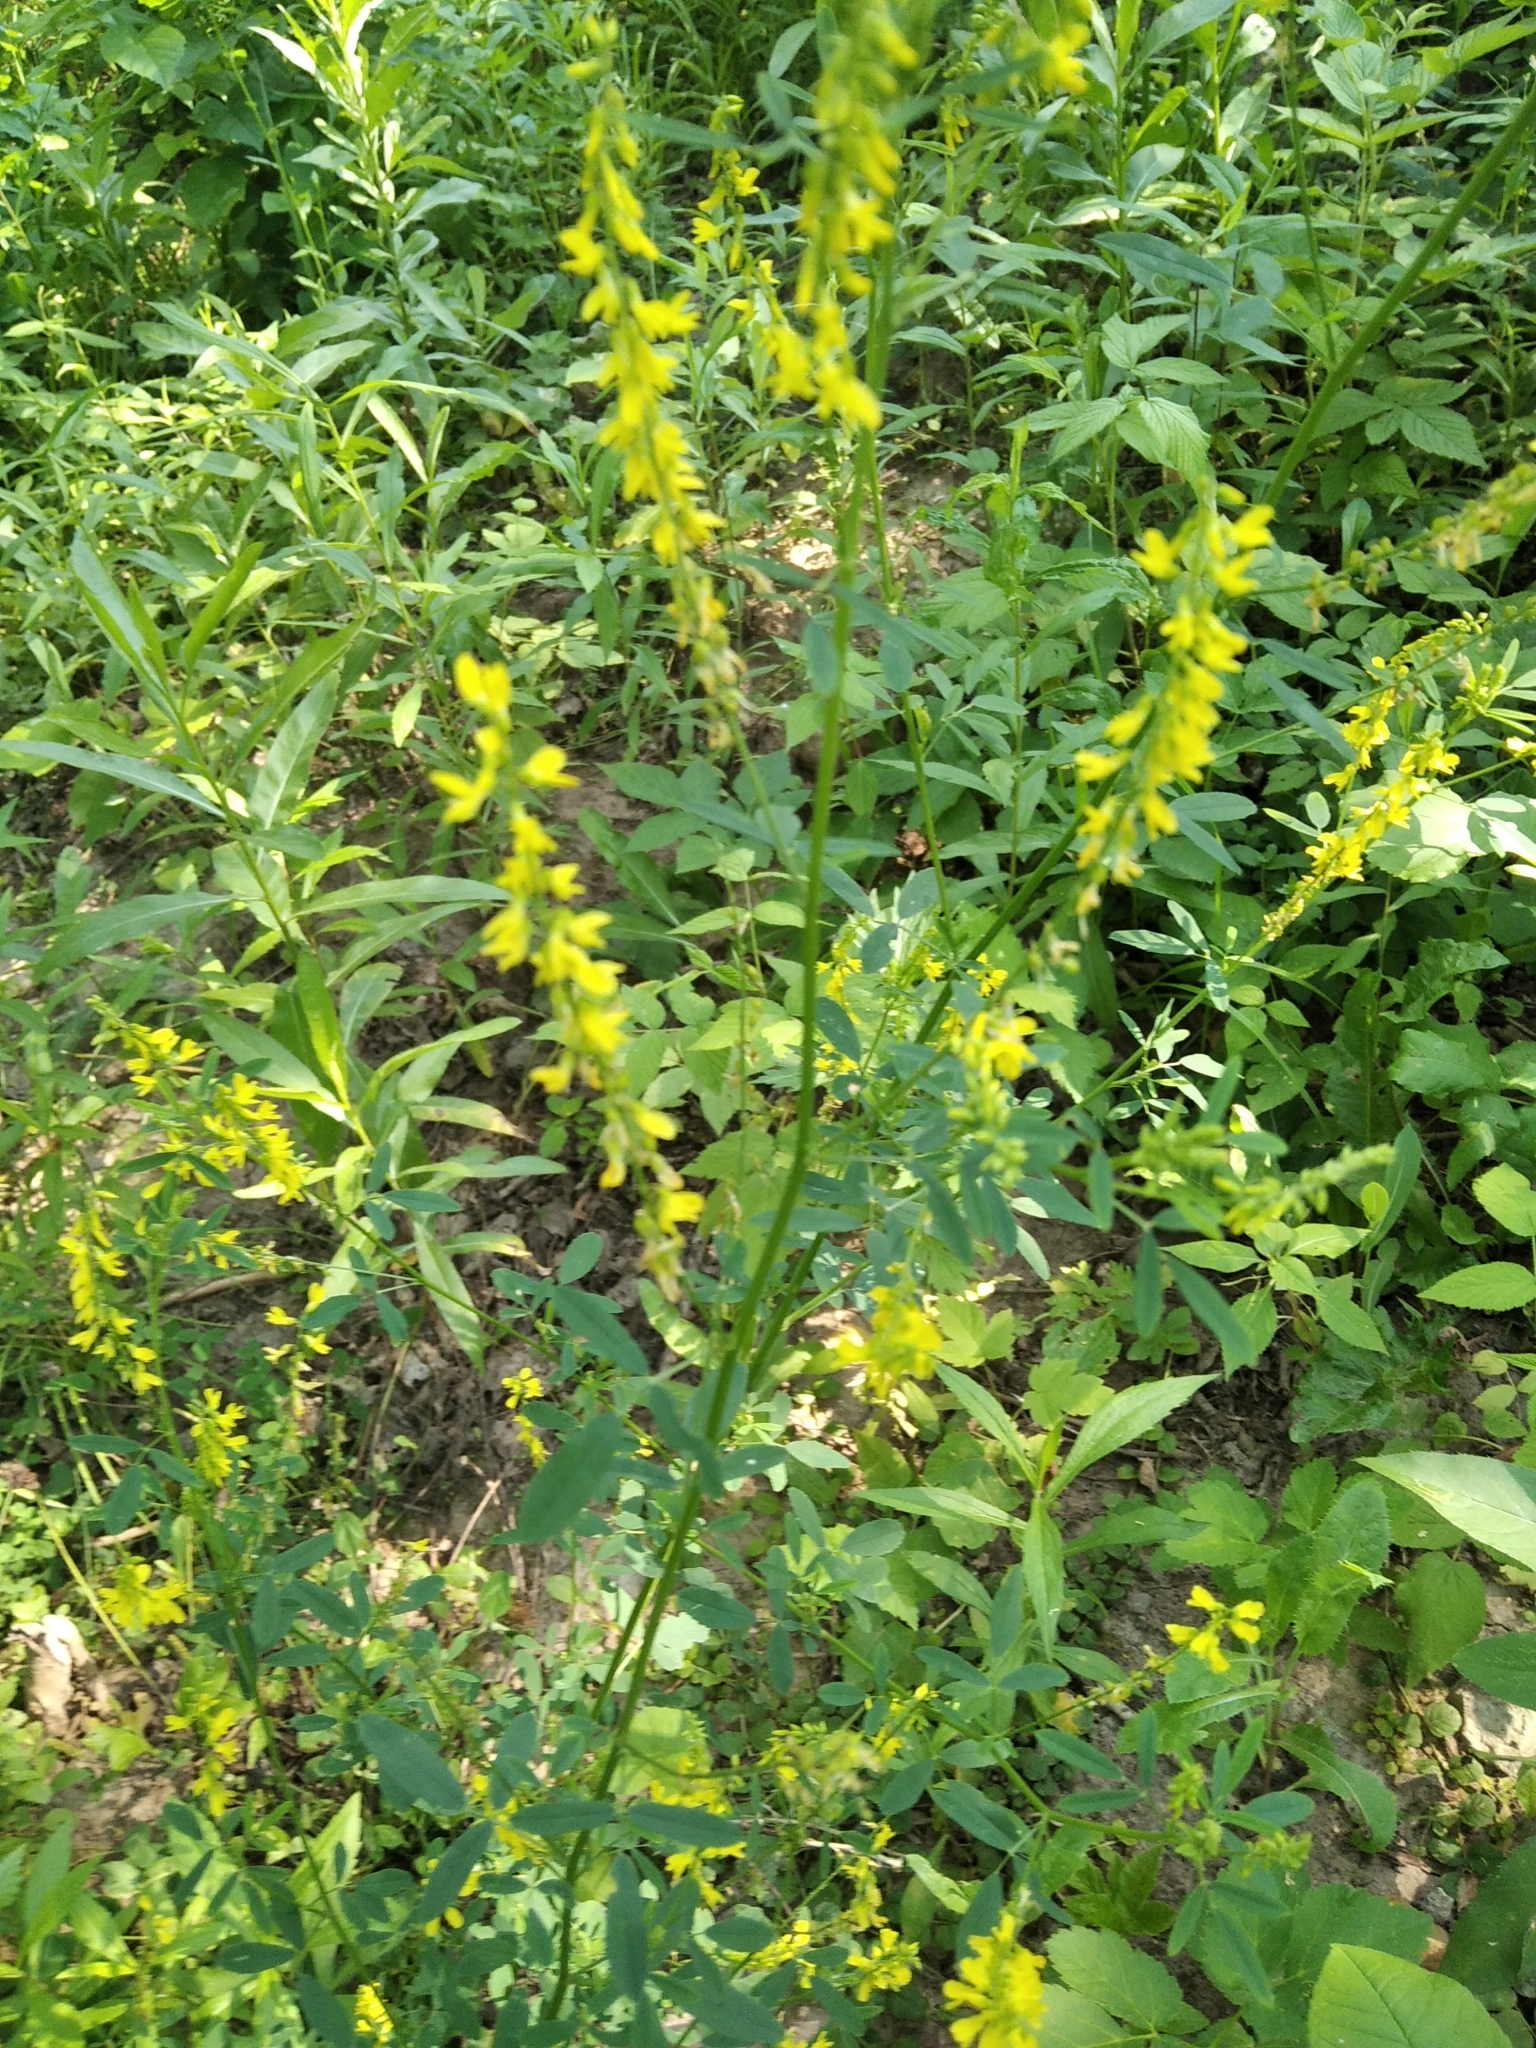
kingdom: Plantae
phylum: Tracheophyta
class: Magnoliopsida
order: Fabales
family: Fabaceae
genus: Melilotus
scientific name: Melilotus officinalis
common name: Sweetclover
